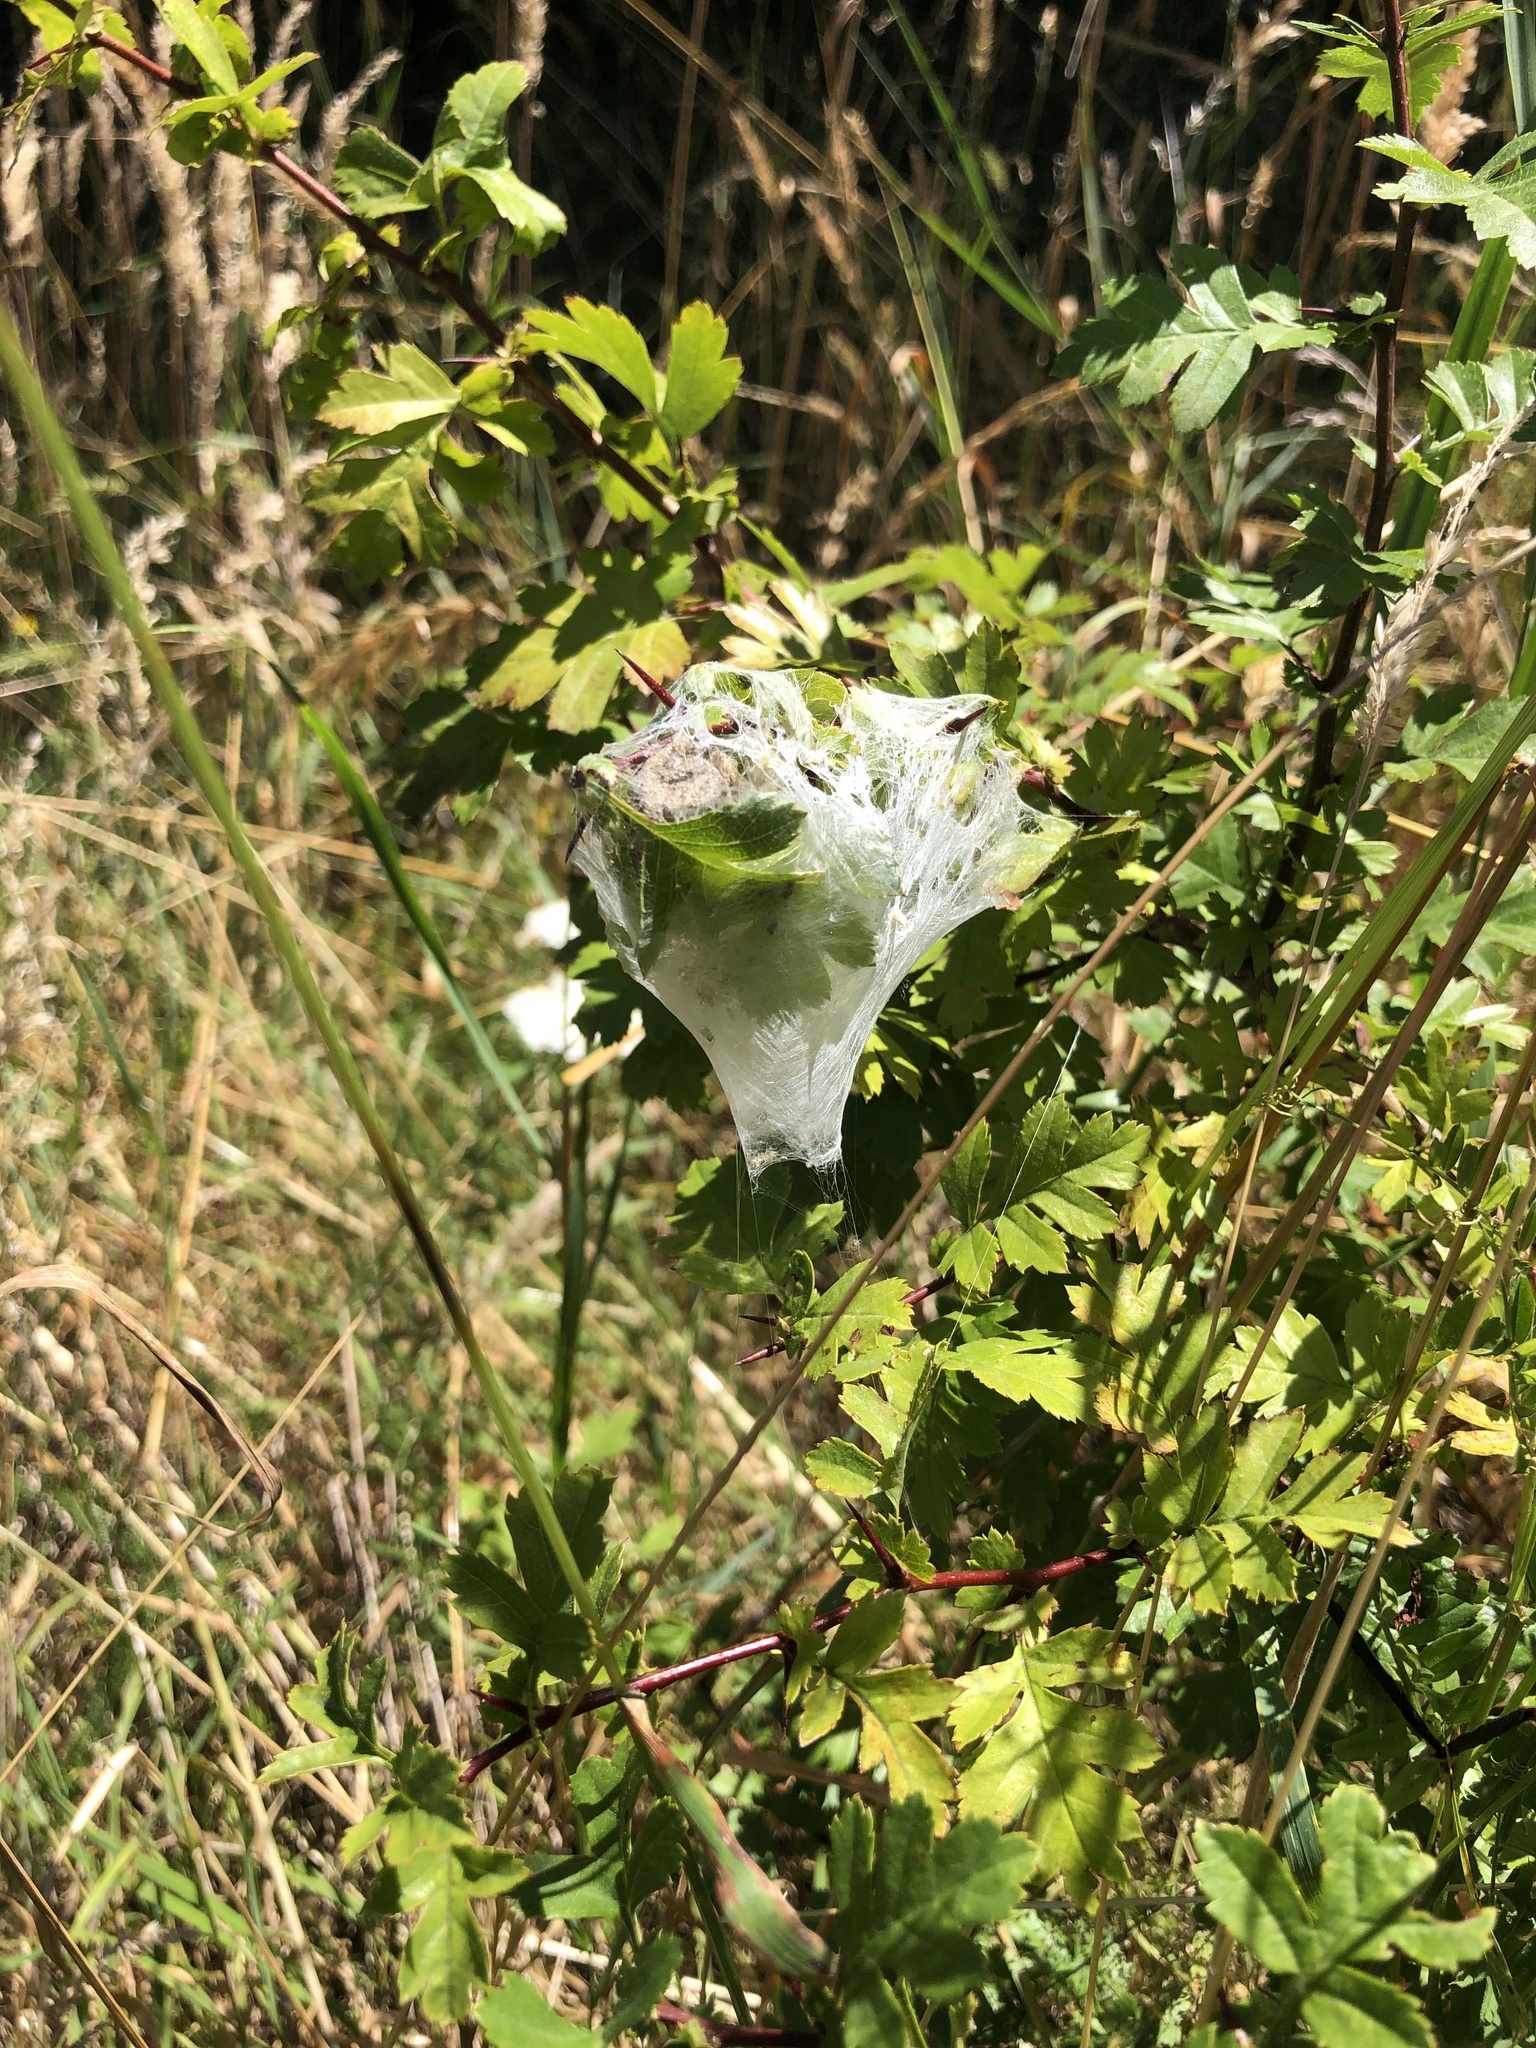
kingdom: Animalia
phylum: Arthropoda
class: Arachnida
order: Araneae
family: Pisauridae
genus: Dolomedes
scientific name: Dolomedes minor
